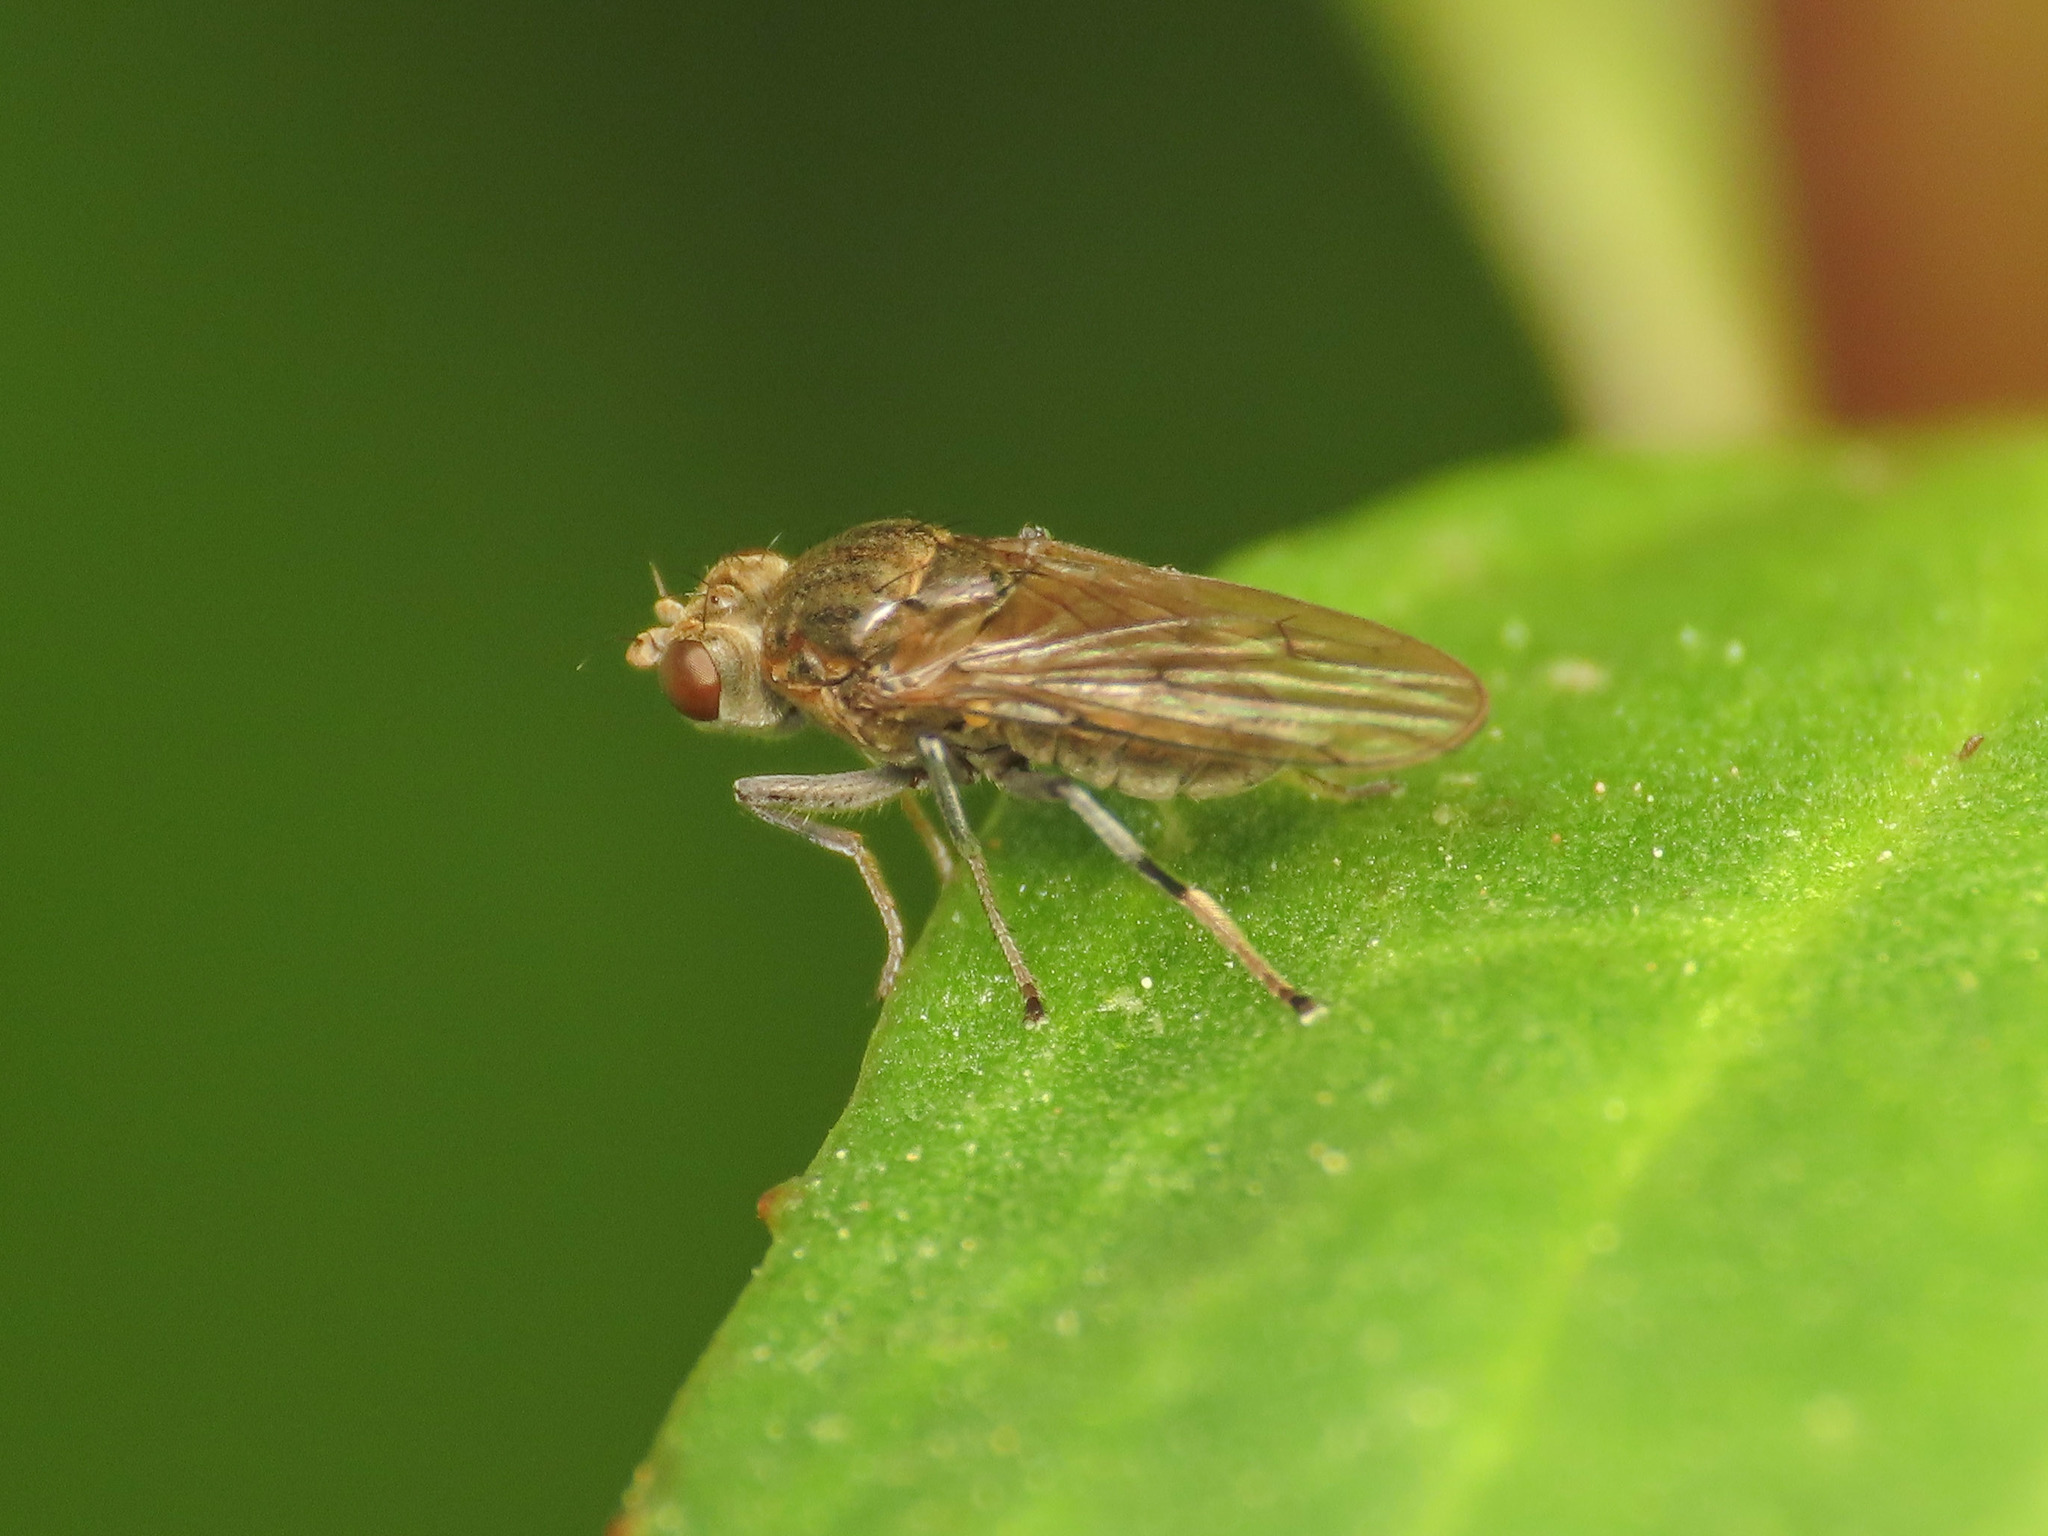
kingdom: Animalia
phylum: Arthropoda
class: Insecta
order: Diptera
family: Ephydridae
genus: Parydra
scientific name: Parydra coarctata
